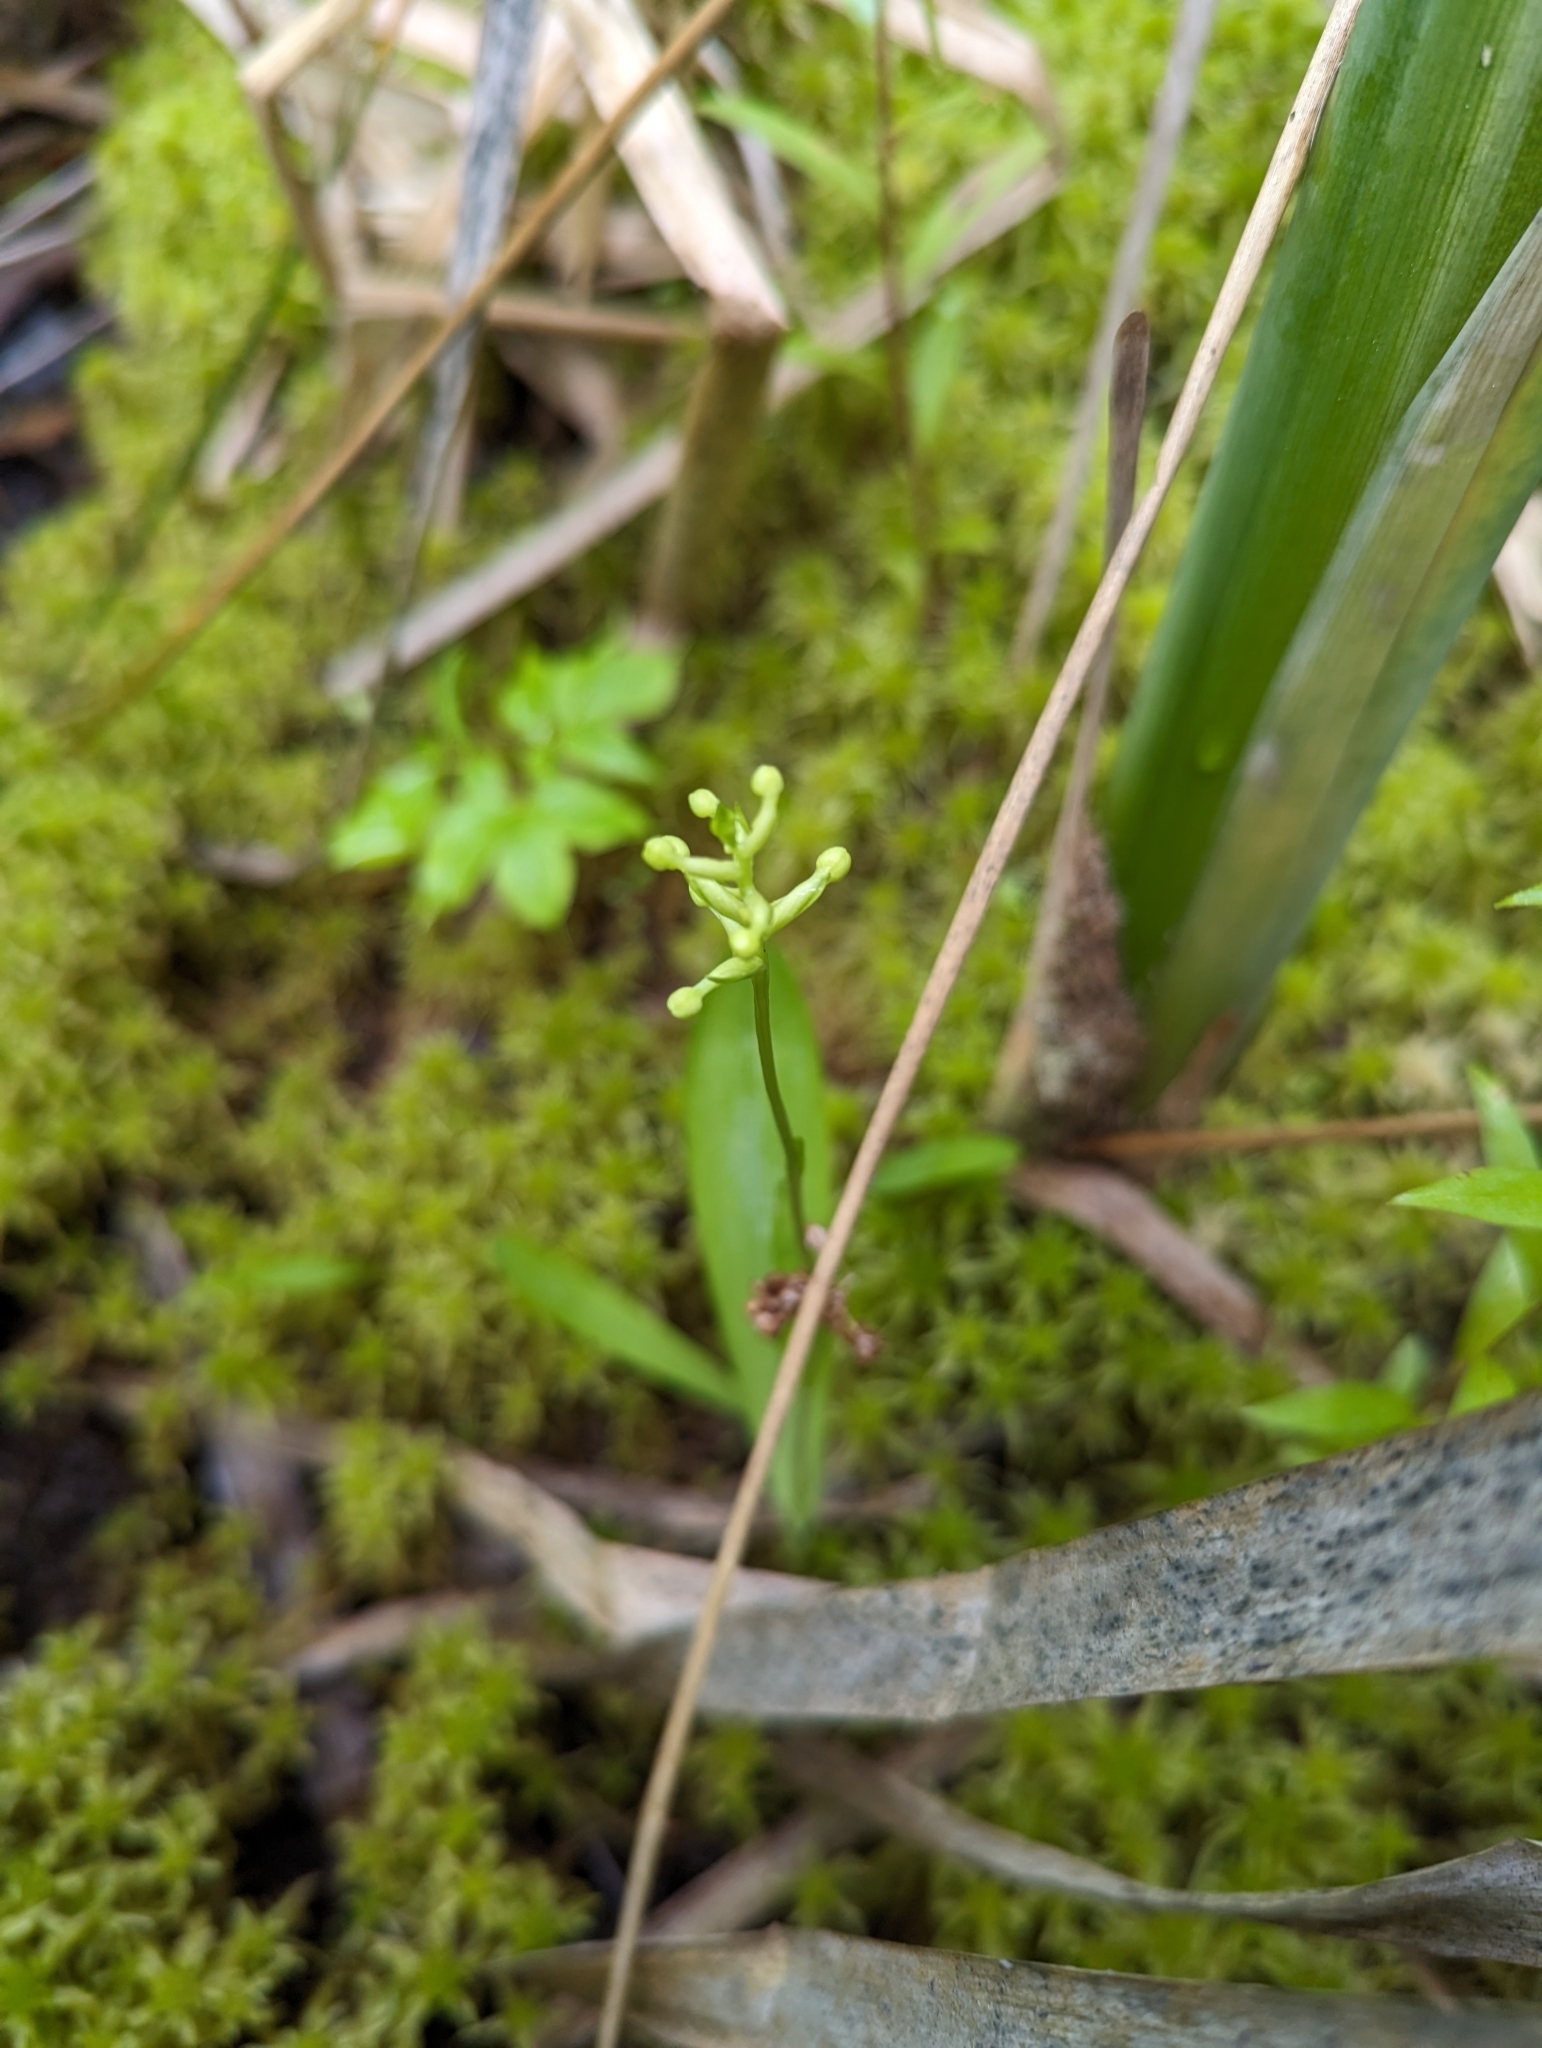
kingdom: Plantae
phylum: Tracheophyta
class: Liliopsida
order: Asparagales
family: Orchidaceae
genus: Platanthera
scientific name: Platanthera clavellata
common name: Club-spur orchid
